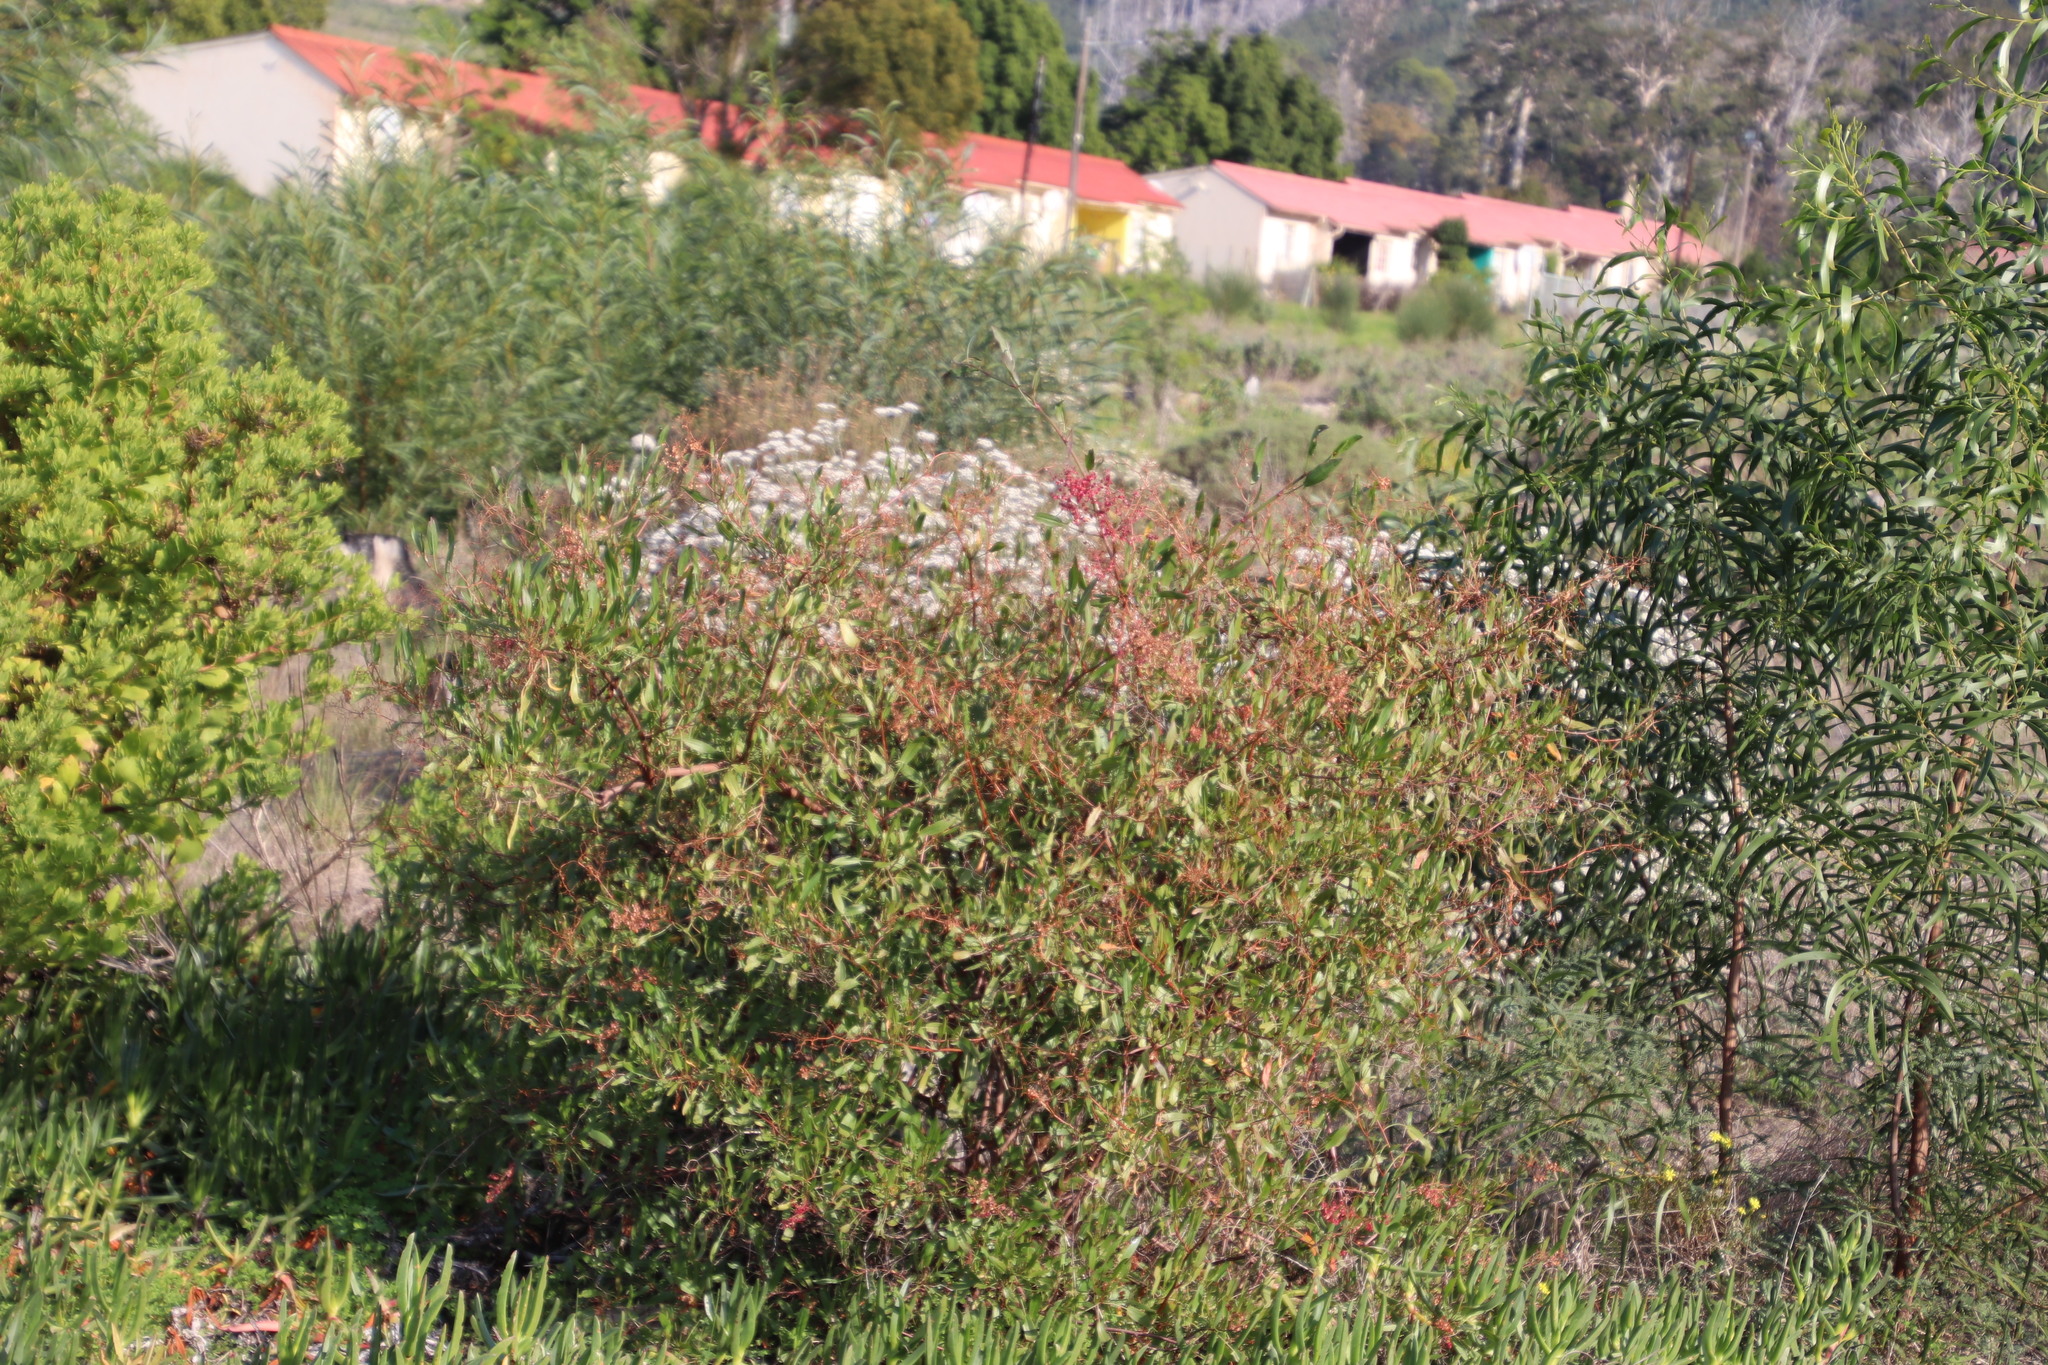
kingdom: Plantae
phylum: Tracheophyta
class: Magnoliopsida
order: Caryophyllales
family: Polygonaceae
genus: Rumex
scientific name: Rumex usambarensis
